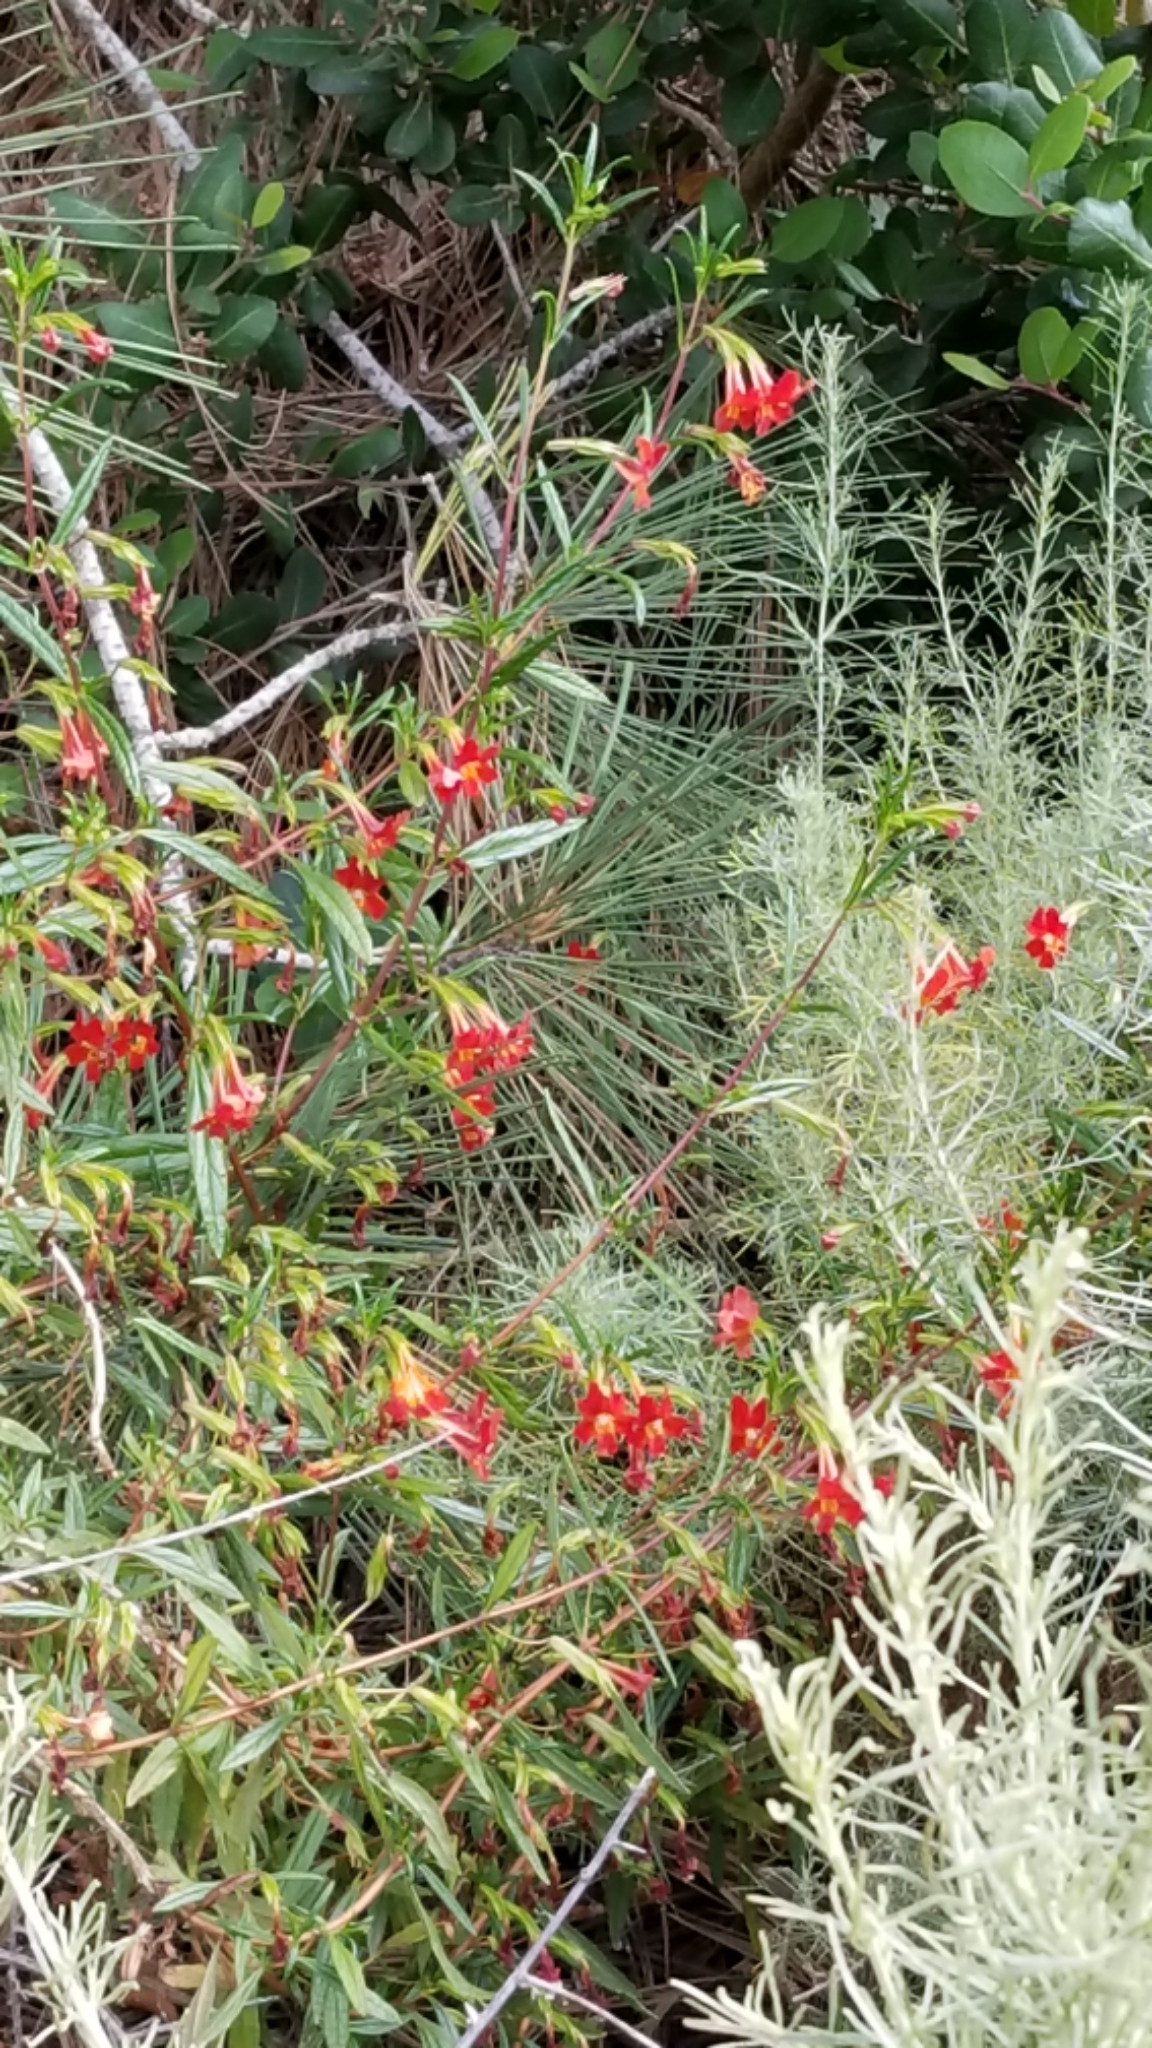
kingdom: Plantae
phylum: Tracheophyta
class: Magnoliopsida
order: Lamiales
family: Phrymaceae
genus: Diplacus
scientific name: Diplacus puniceus
